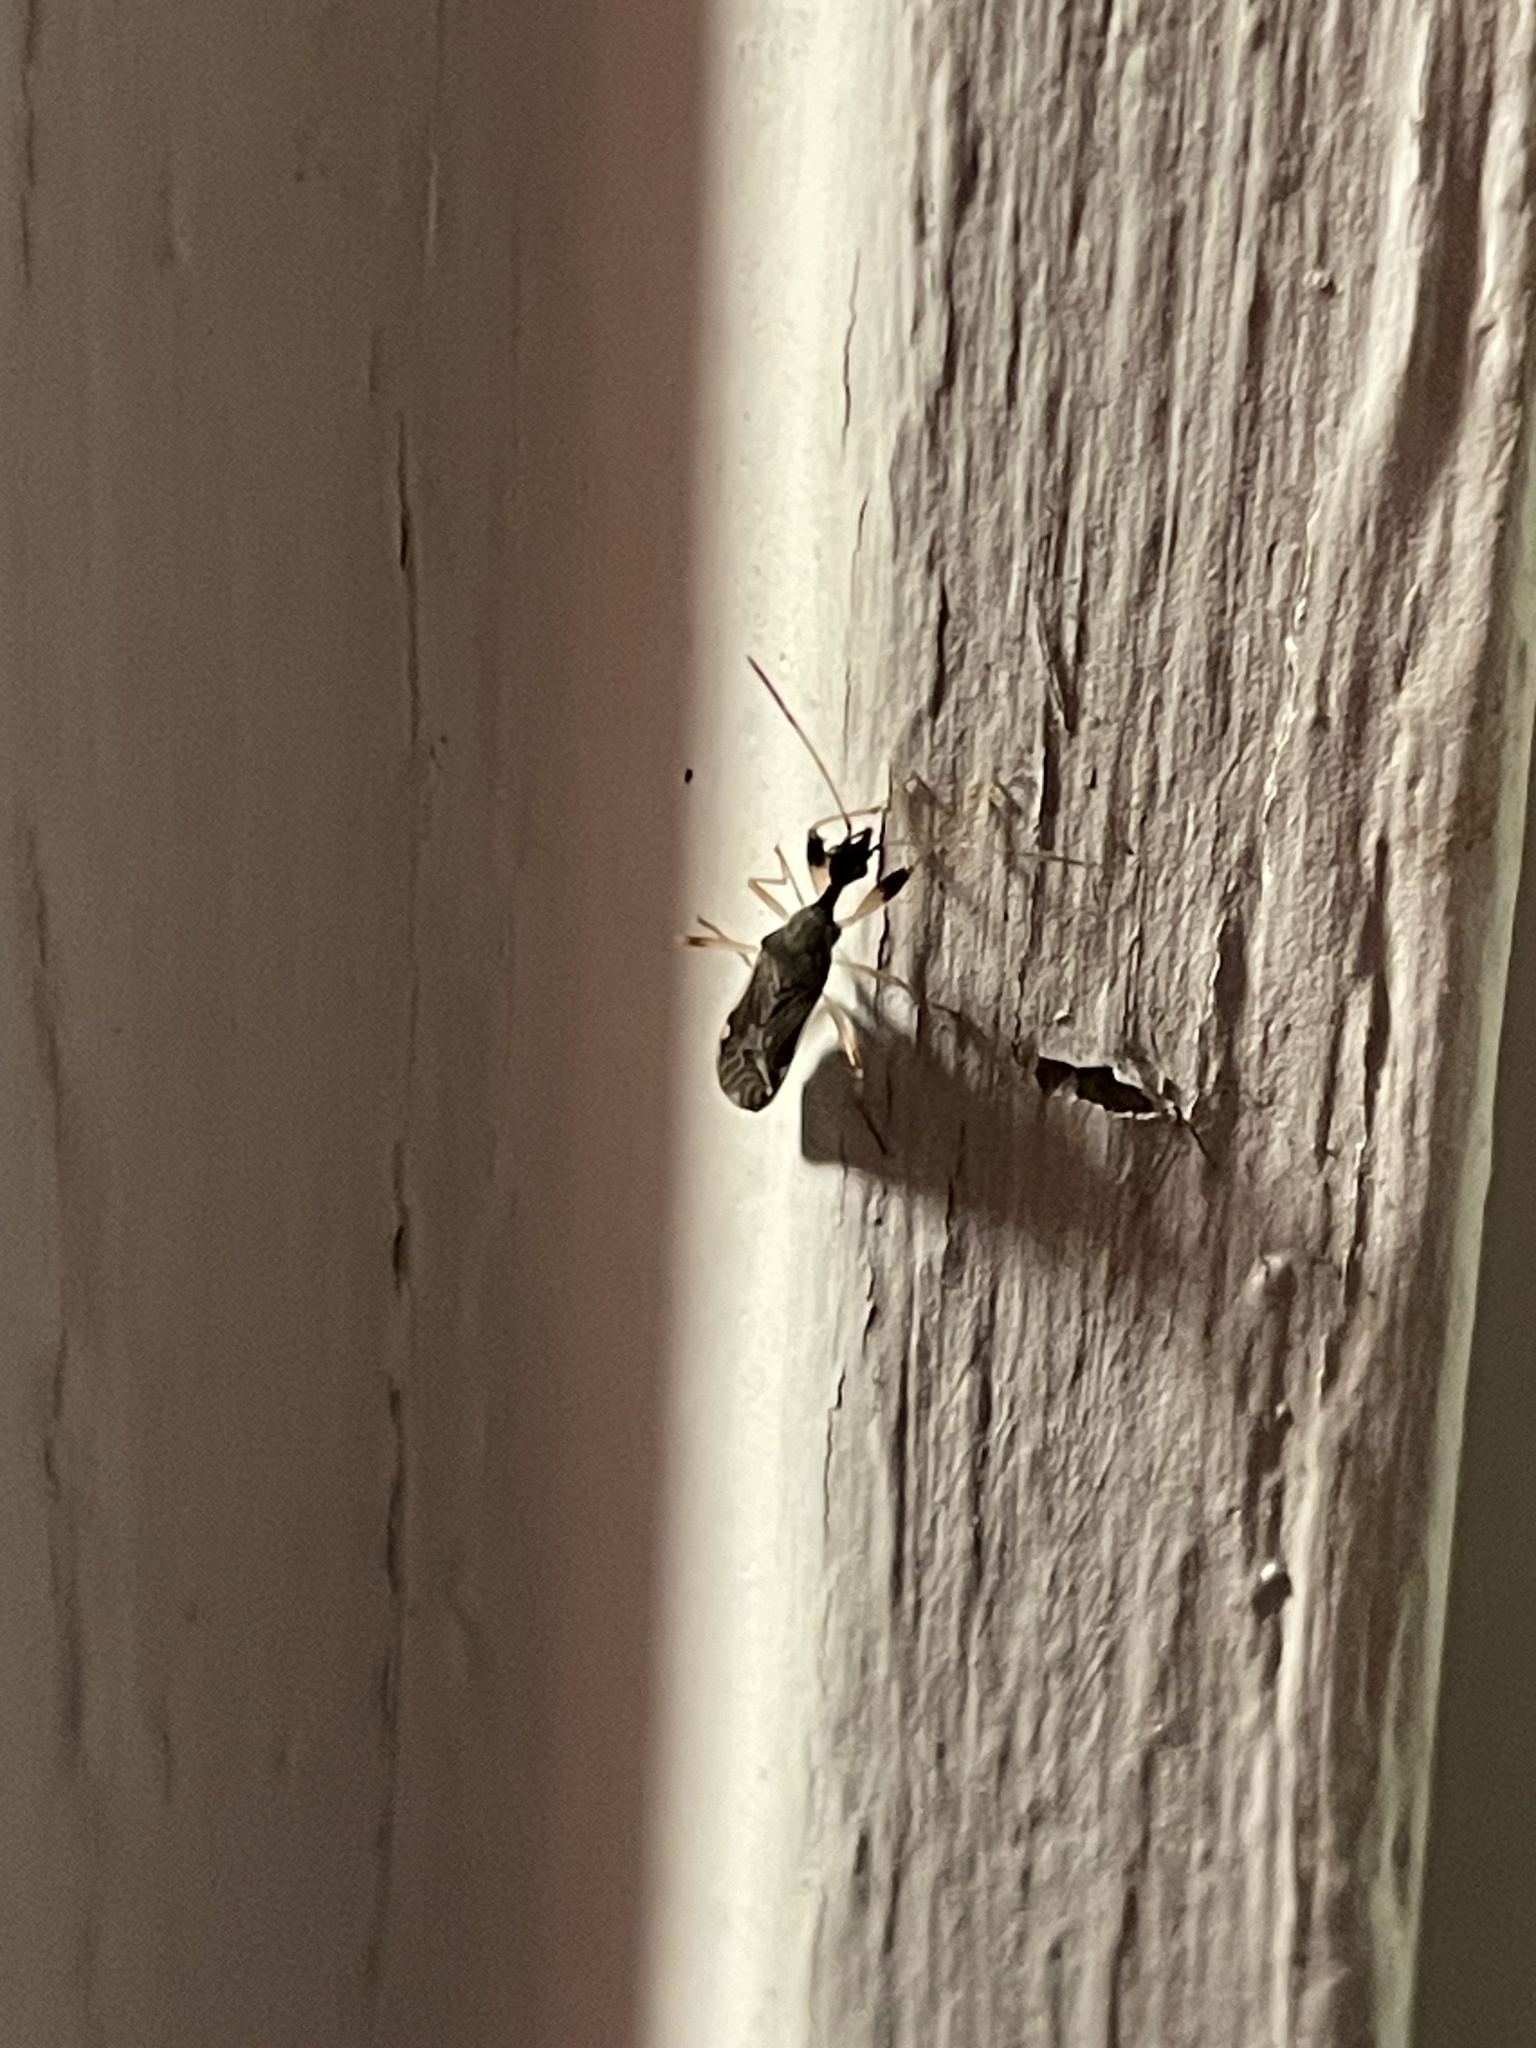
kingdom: Animalia
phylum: Arthropoda
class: Insecta
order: Hemiptera
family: Rhyparochromidae
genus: Myodocha
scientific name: Myodocha serripes
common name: Long-necked seed bug
